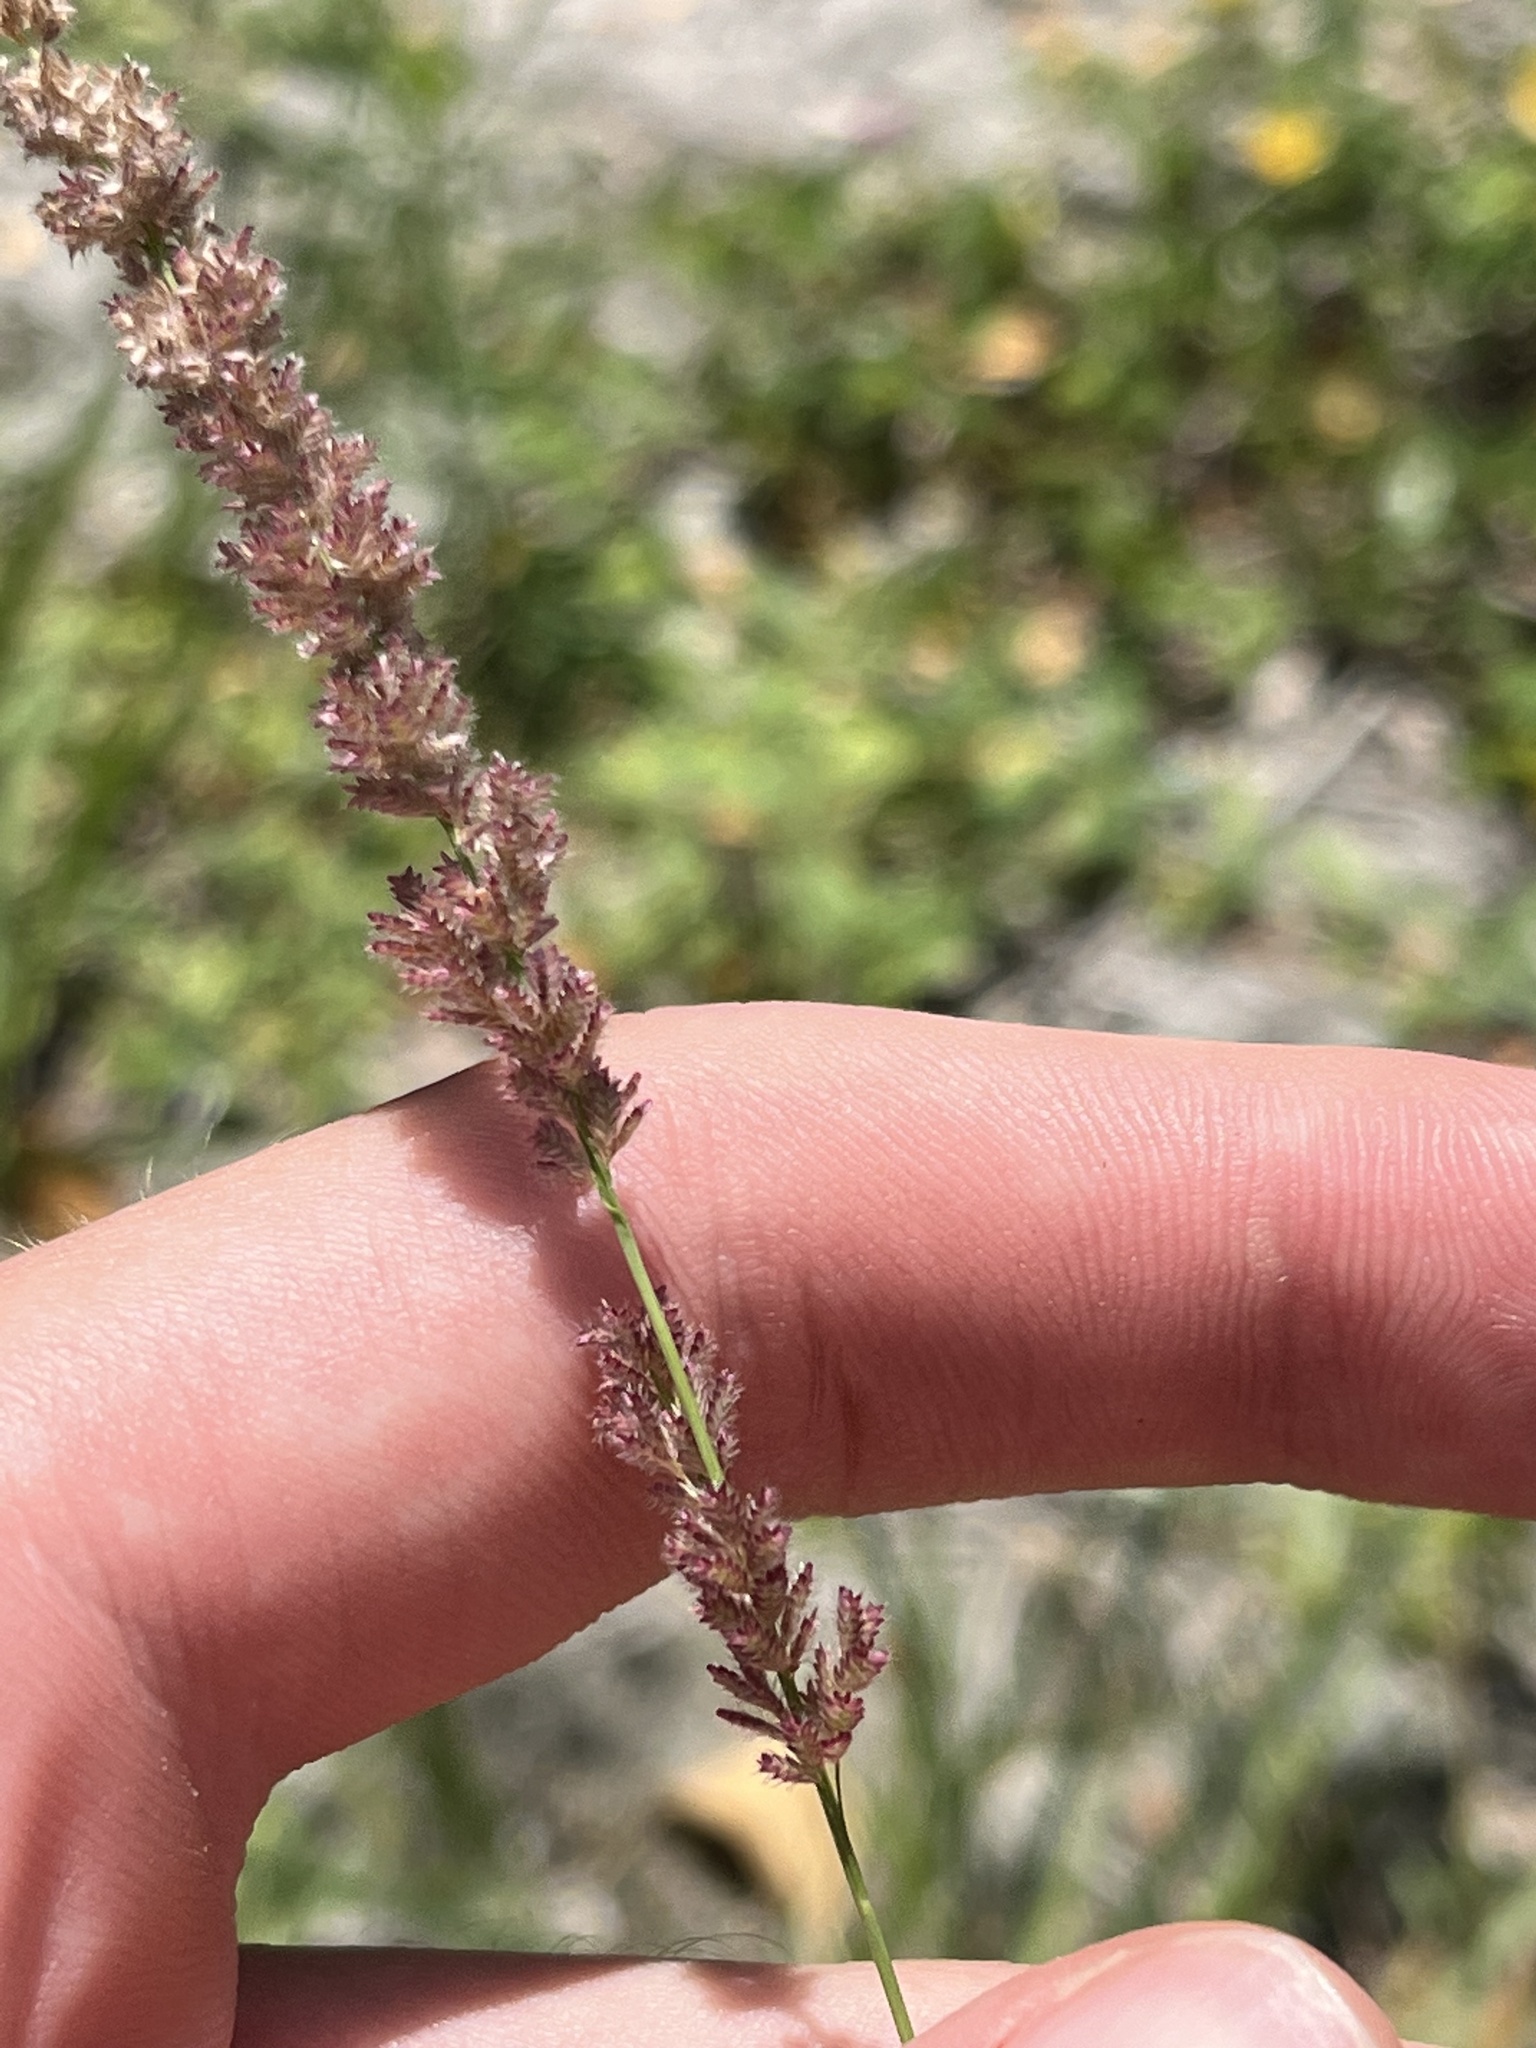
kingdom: Plantae
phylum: Tracheophyta
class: Liliopsida
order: Poales
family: Poaceae
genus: Eragrostis
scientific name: Eragrostis ciliaris
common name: Gophertail lovegrass
